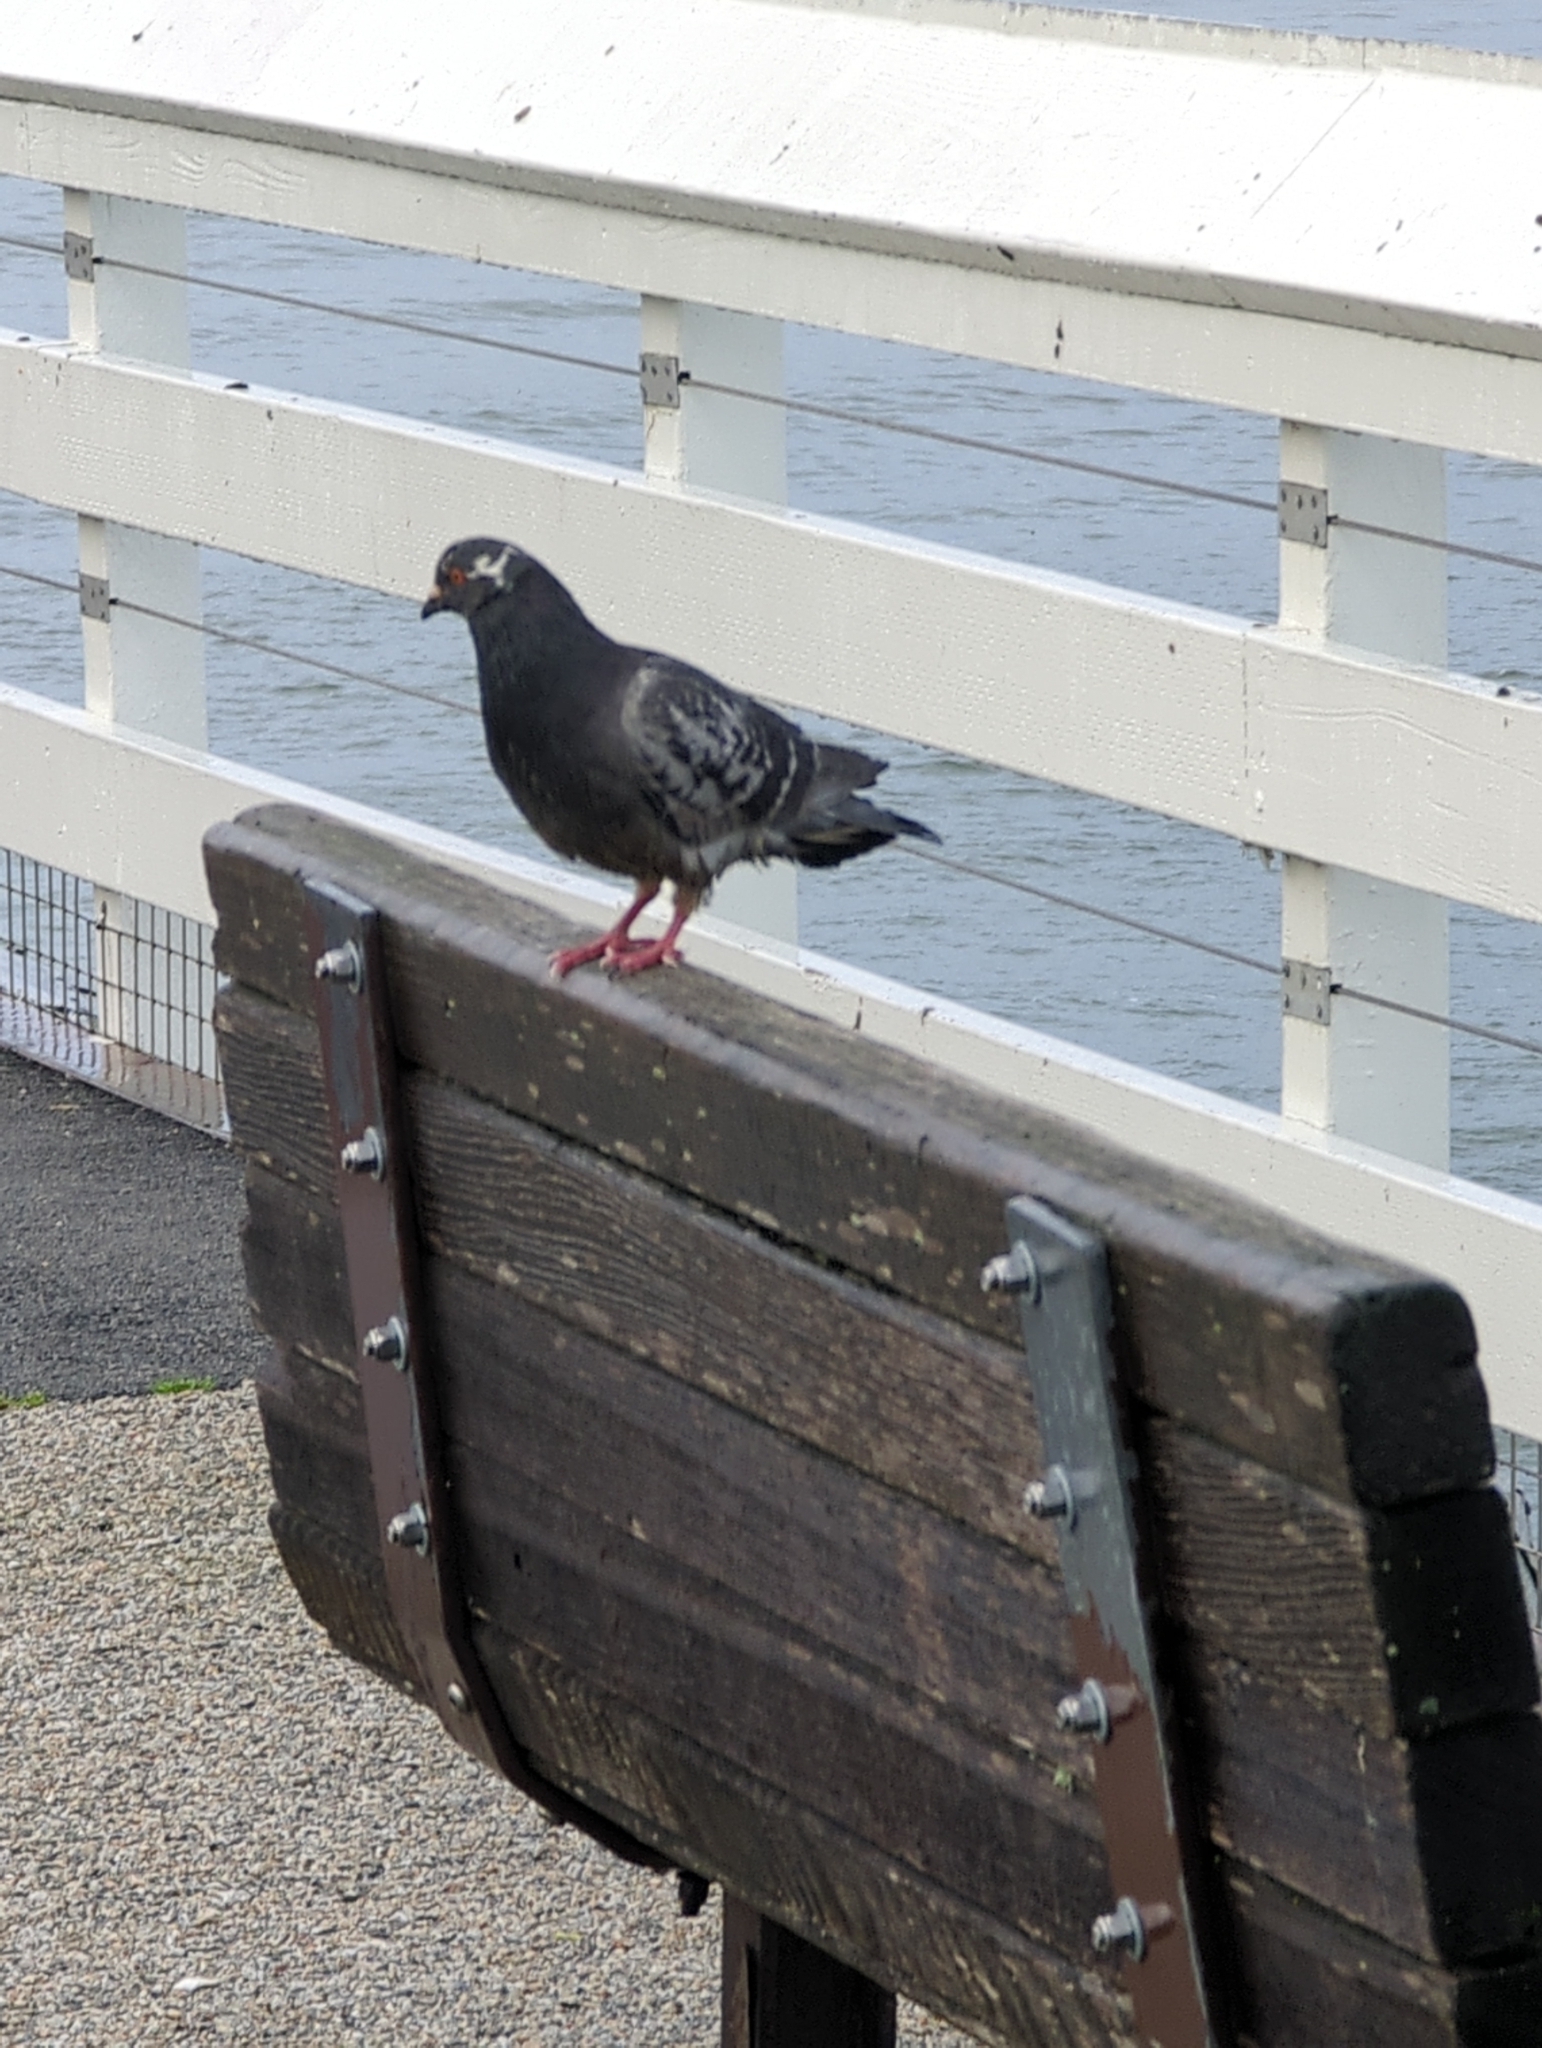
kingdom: Animalia
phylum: Chordata
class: Aves
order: Columbiformes
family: Columbidae
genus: Columba
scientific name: Columba livia
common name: Rock pigeon
